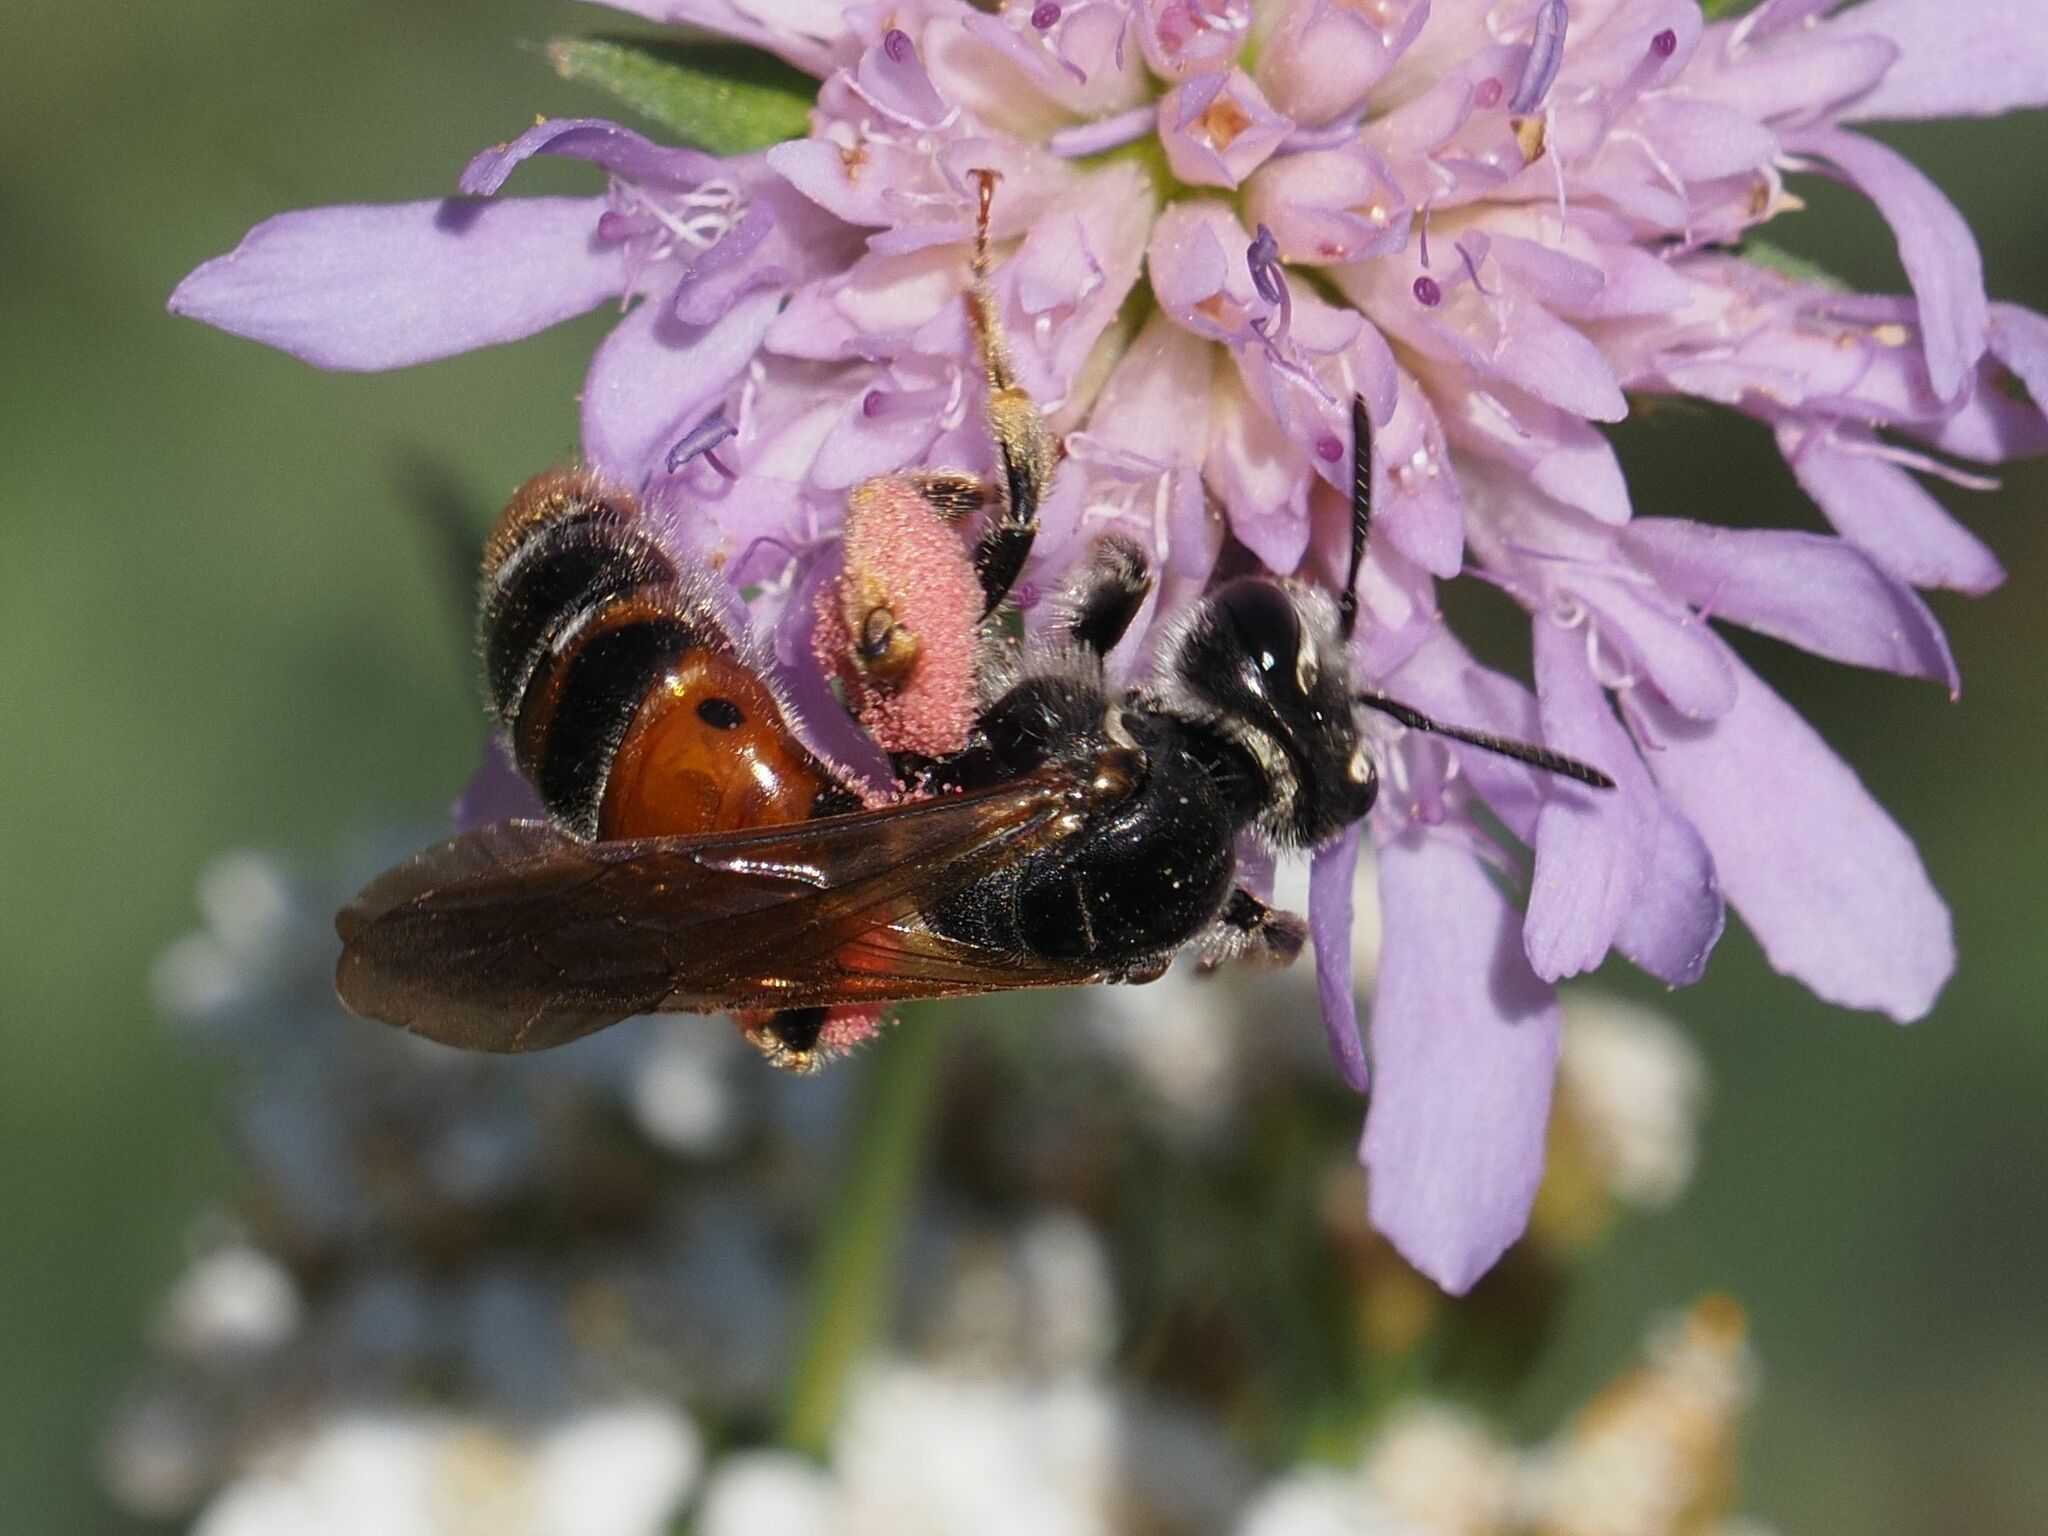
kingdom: Animalia
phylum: Arthropoda
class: Insecta
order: Hymenoptera
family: Andrenidae
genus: Andrena
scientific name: Andrena hattorfiana
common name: Large scabious mining bee
